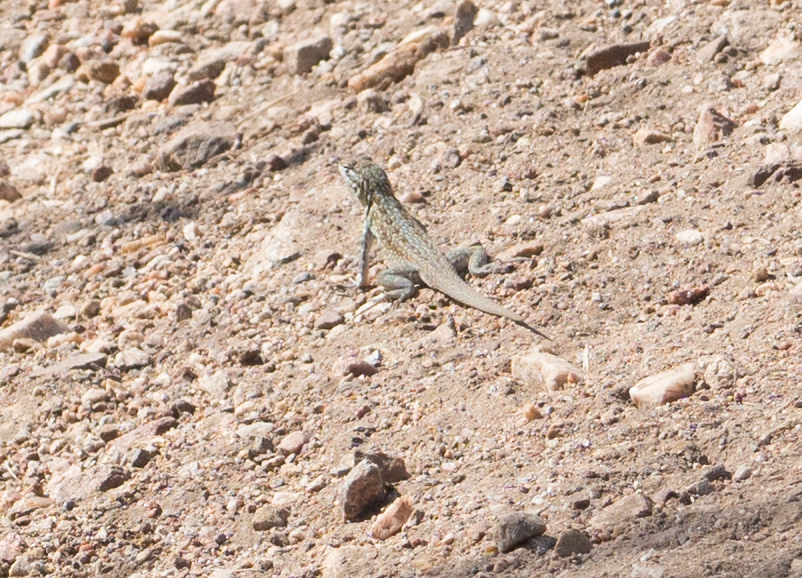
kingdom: Animalia
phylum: Chordata
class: Squamata
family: Phrynosomatidae
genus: Uta
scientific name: Uta stansburiana
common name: Side-blotched lizard
